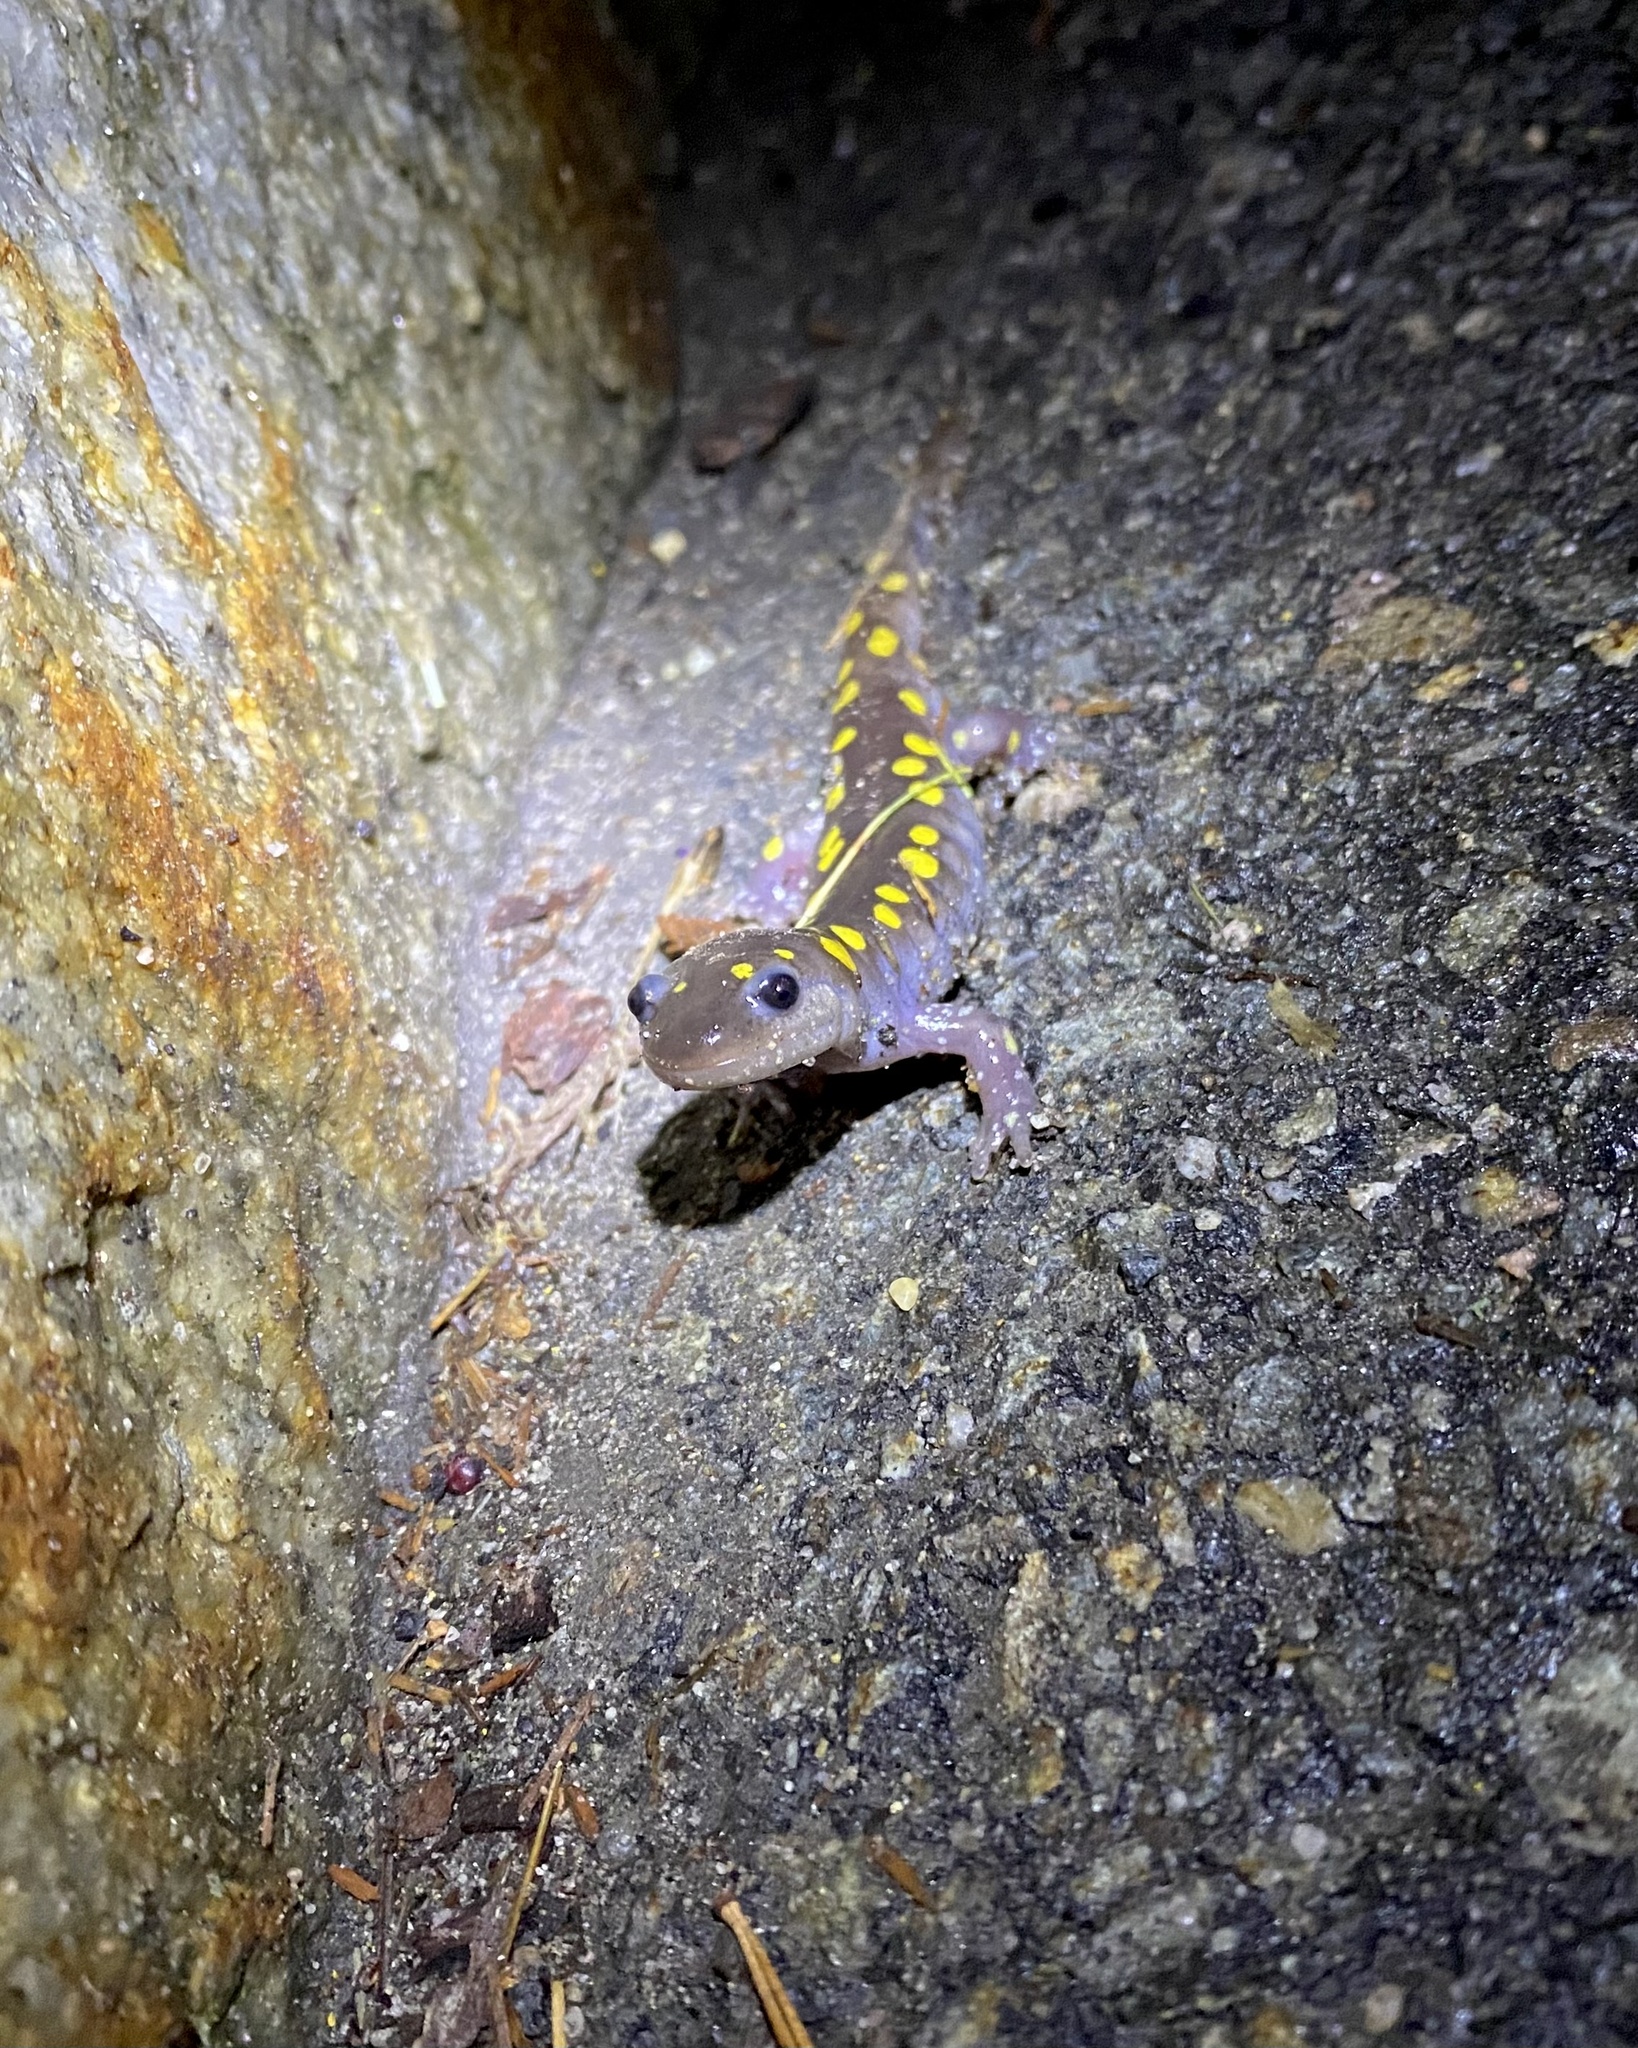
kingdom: Animalia
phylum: Chordata
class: Amphibia
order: Caudata
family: Ambystomatidae
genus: Ambystoma
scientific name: Ambystoma maculatum
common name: Spotted salamander
